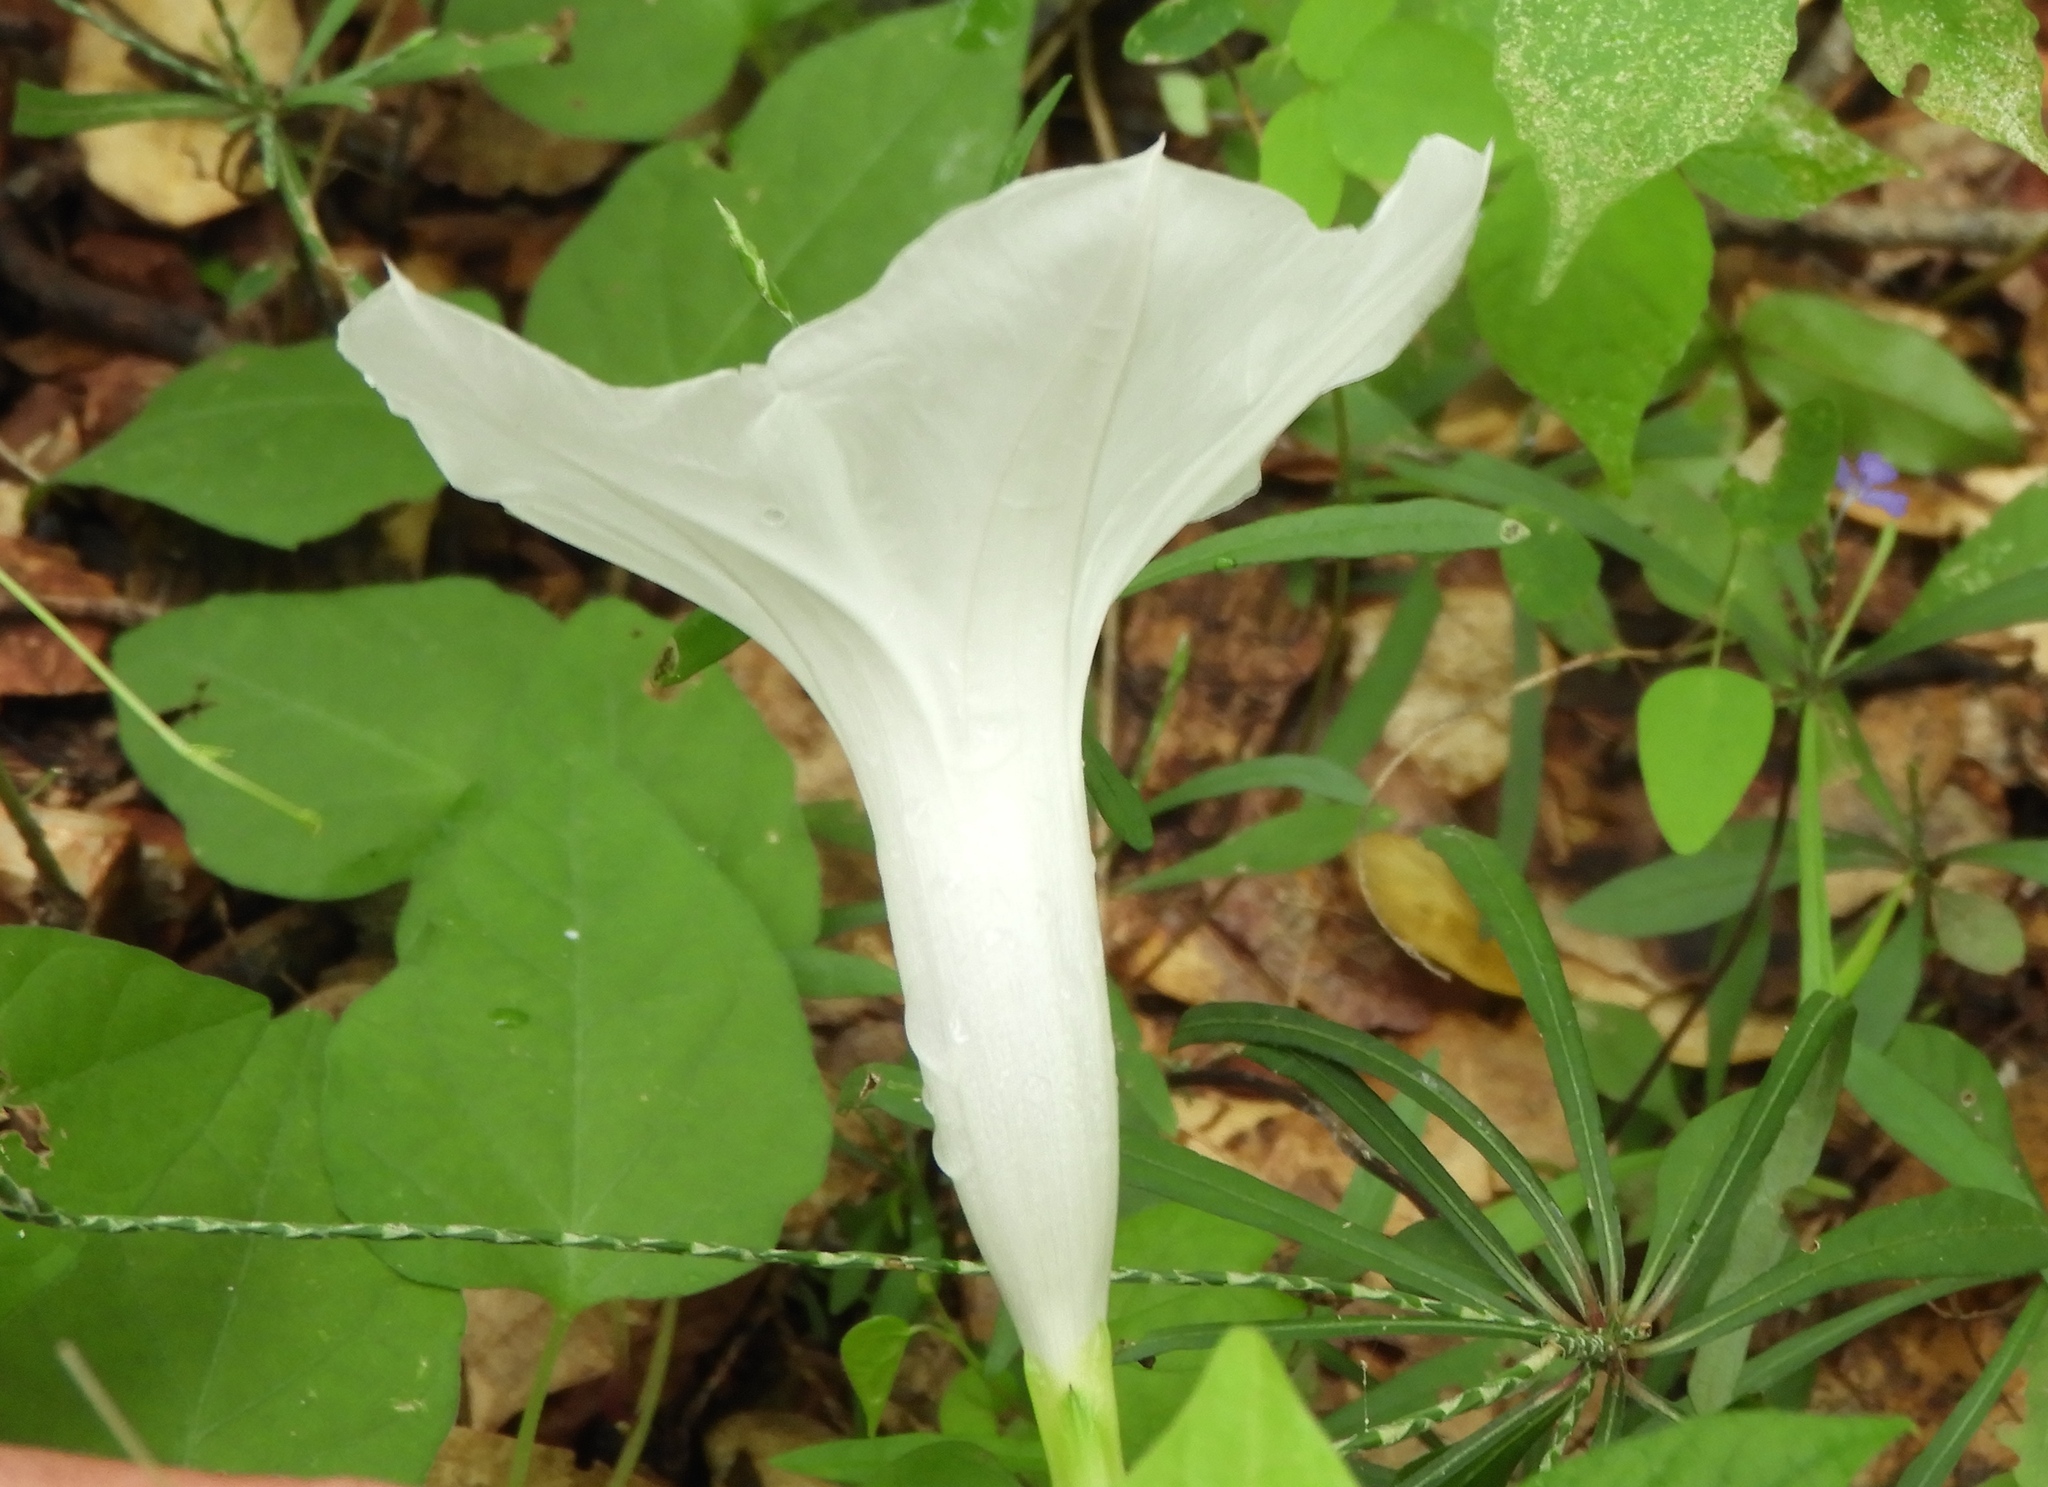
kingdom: Plantae
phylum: Tracheophyta
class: Magnoliopsida
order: Solanales
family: Convolvulaceae
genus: Ipomoea
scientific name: Ipomoea scopulorum
